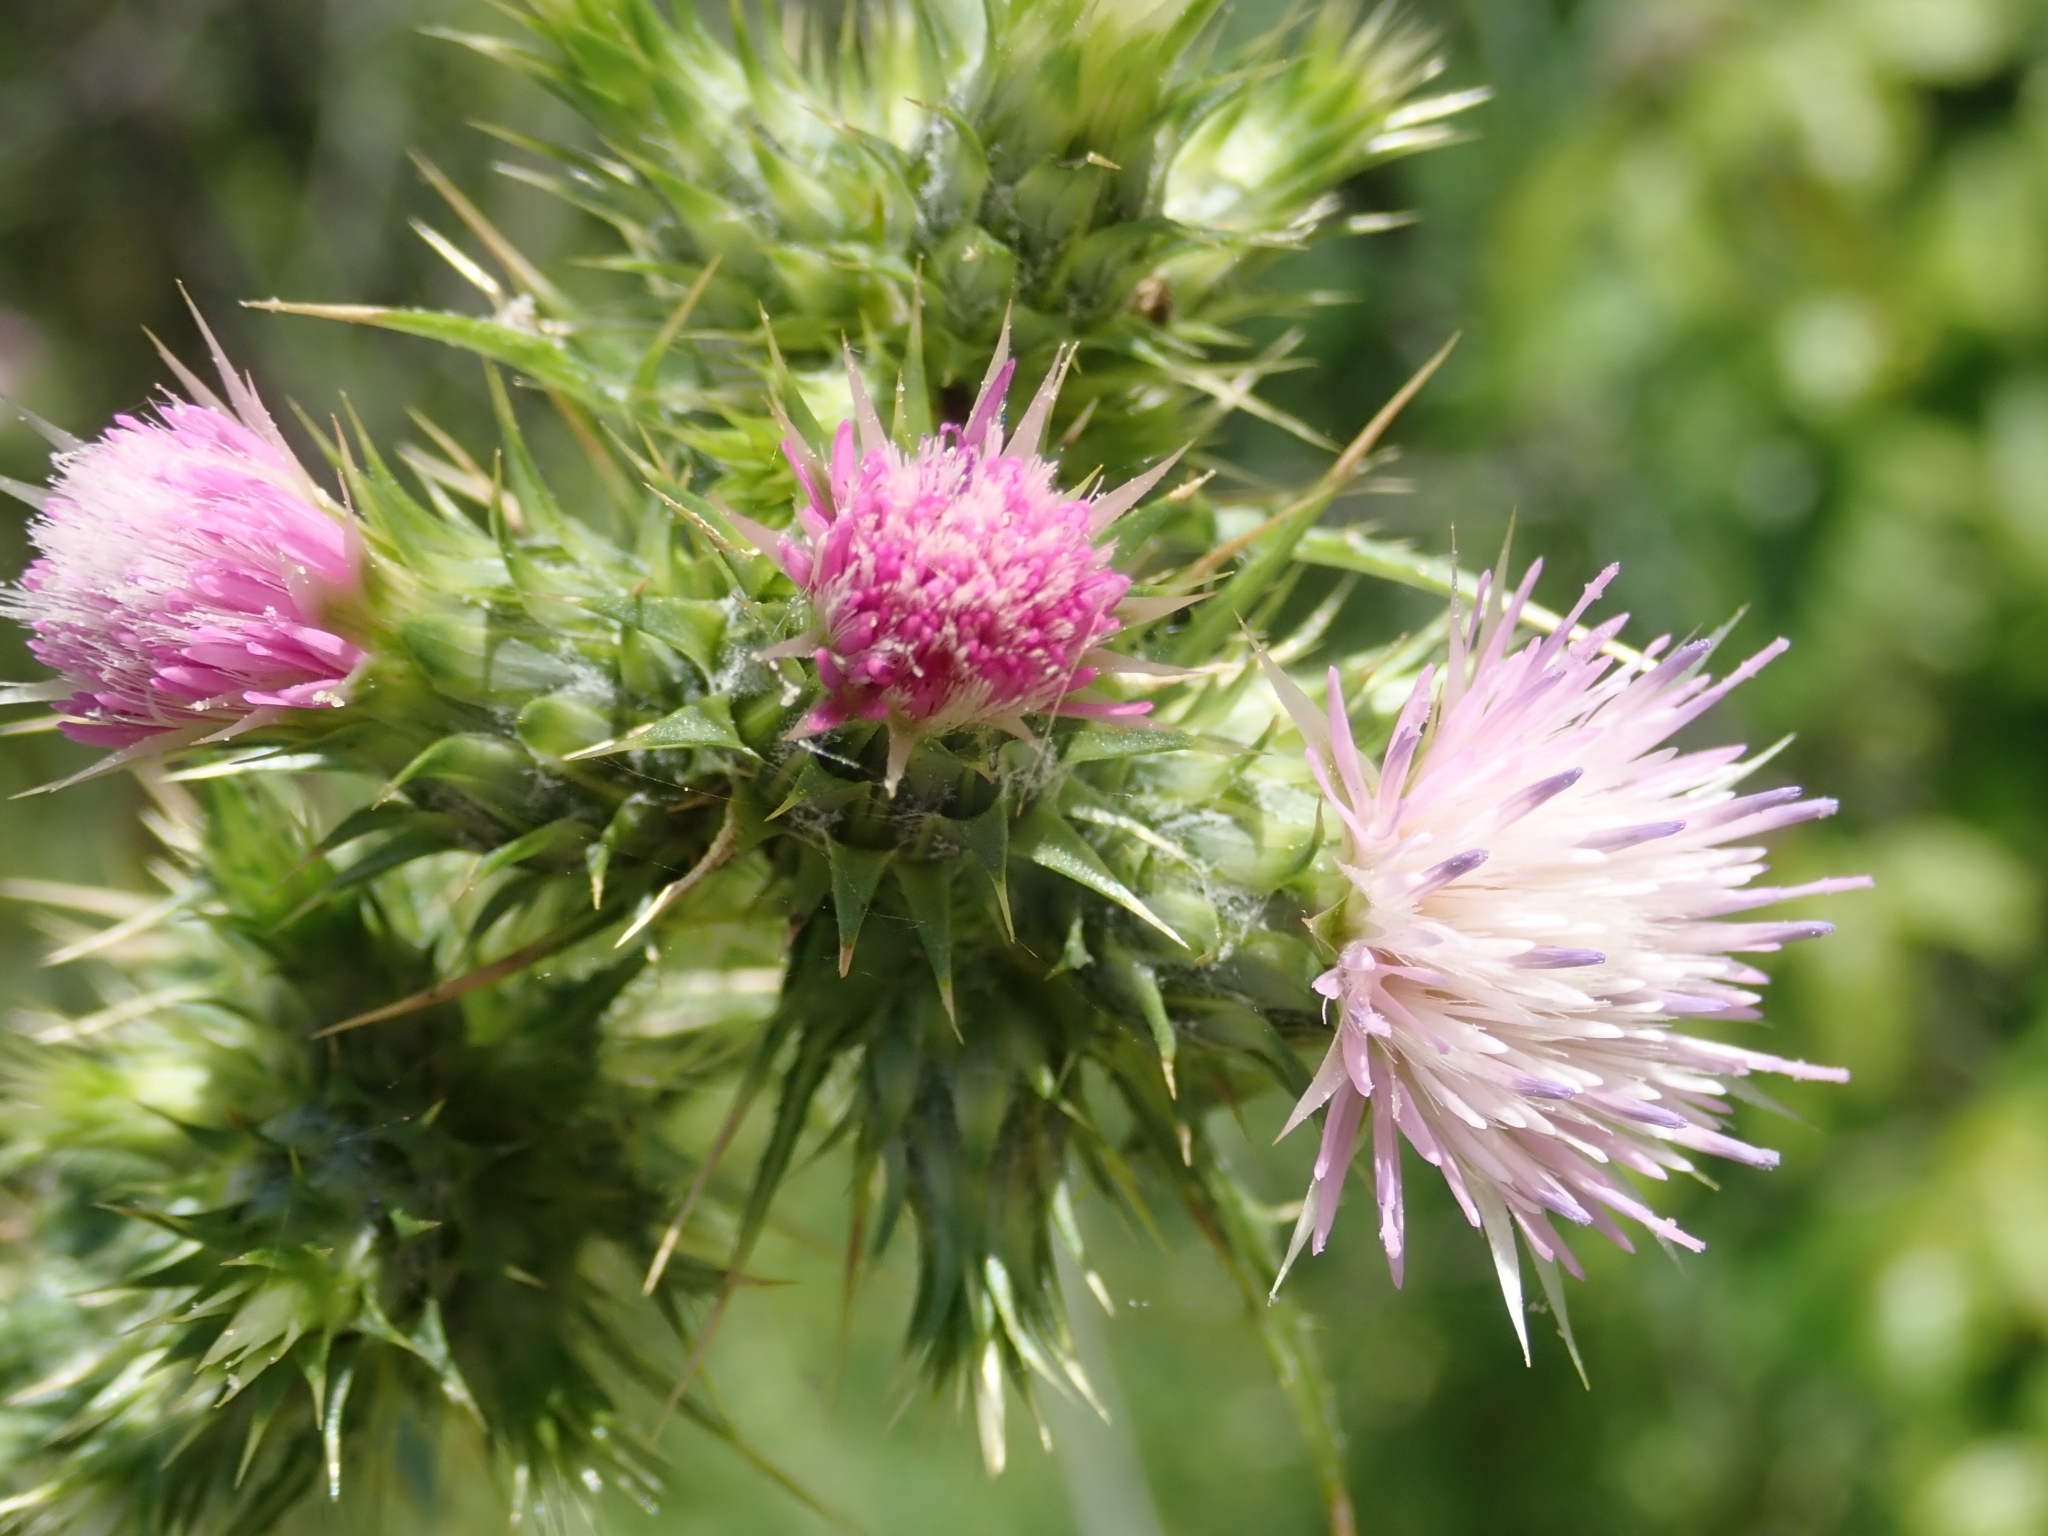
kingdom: Plantae
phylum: Tracheophyta
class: Magnoliopsida
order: Asterales
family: Asteraceae
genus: Carduus
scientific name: Carduus tenuiflorus
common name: Slender thistle
